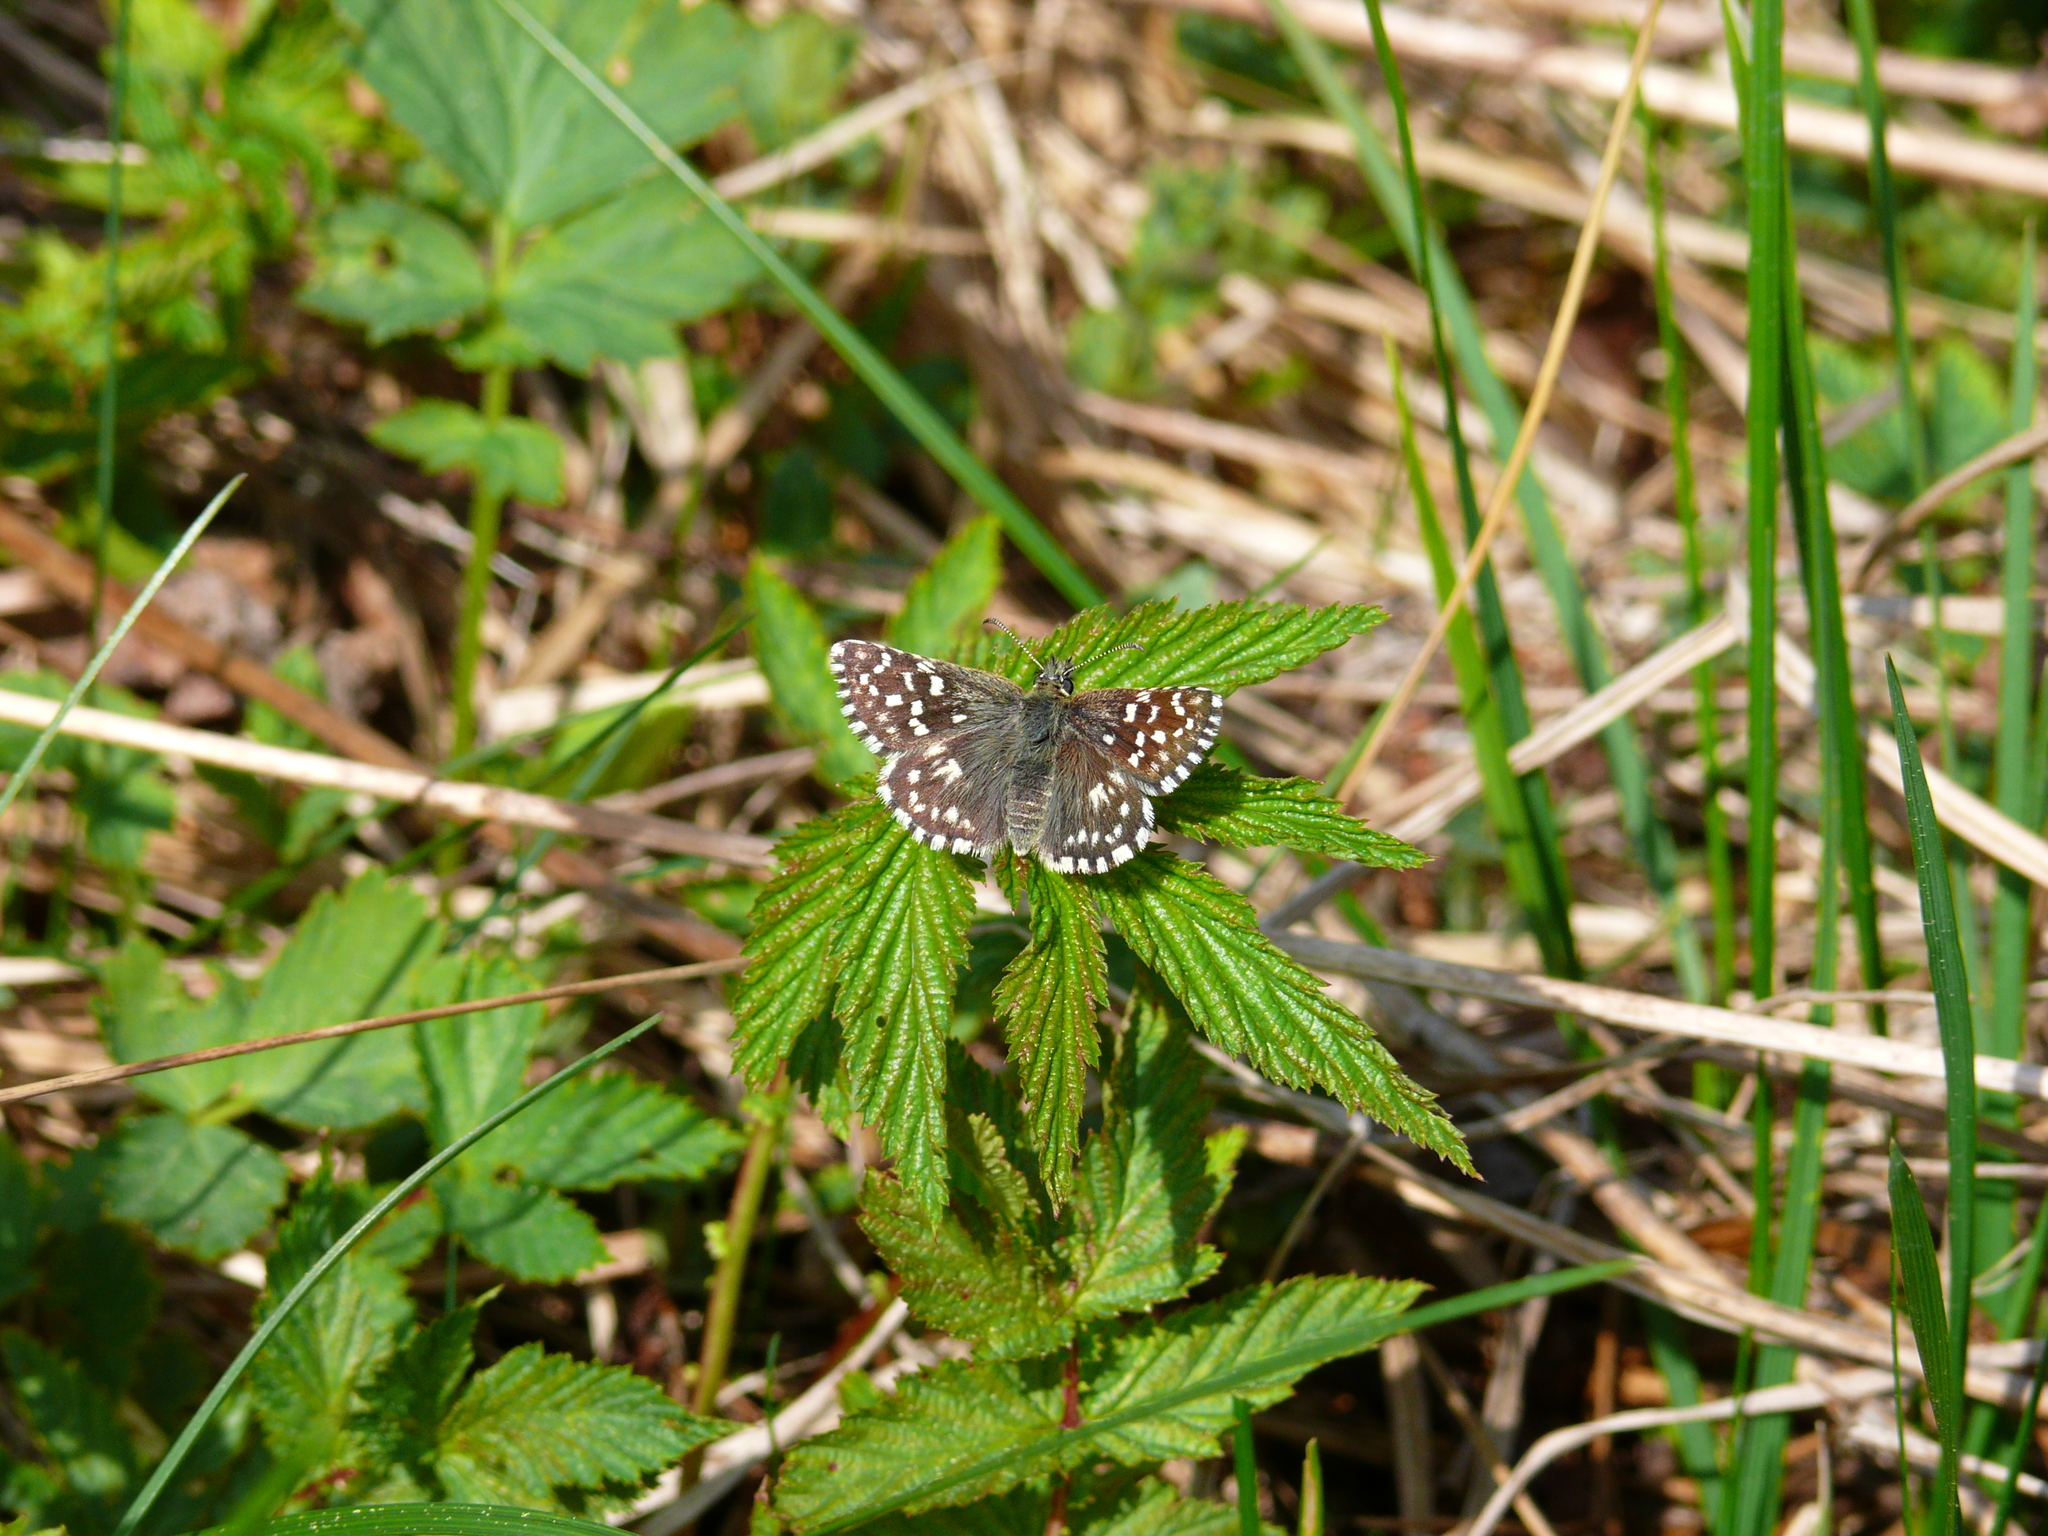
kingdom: Animalia
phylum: Arthropoda
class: Insecta
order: Lepidoptera
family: Hesperiidae
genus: Pyrgus
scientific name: Pyrgus malvae
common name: Grizzled skipper
